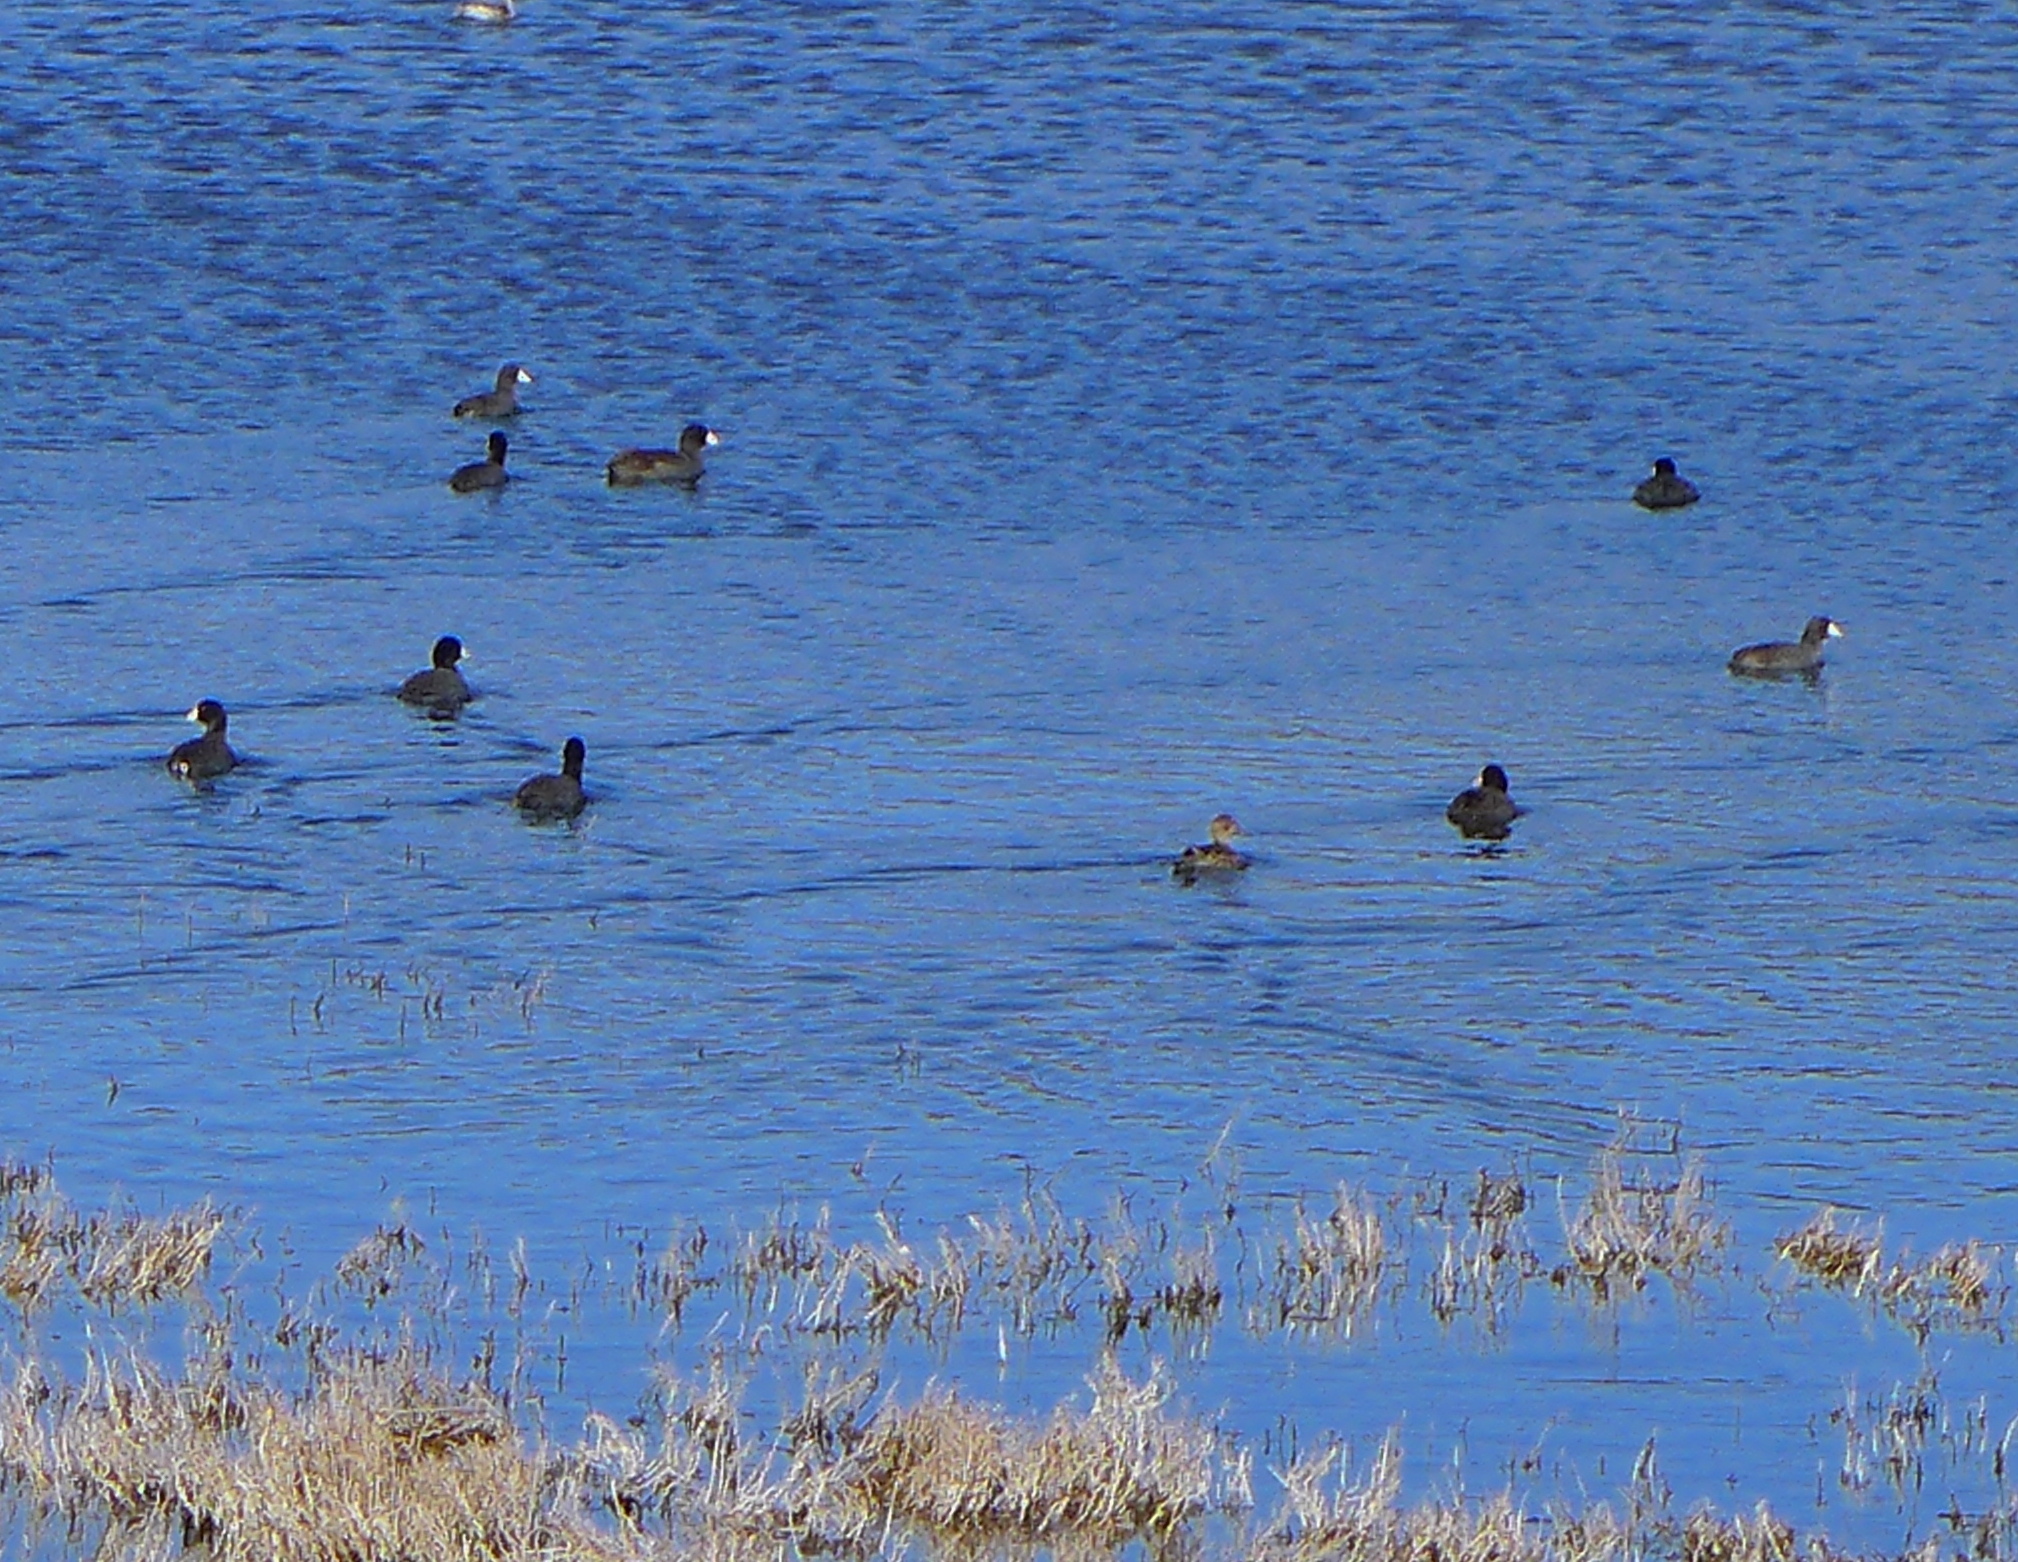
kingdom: Animalia
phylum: Chordata
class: Aves
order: Gruiformes
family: Rallidae
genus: Fulica
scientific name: Fulica americana
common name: American coot
